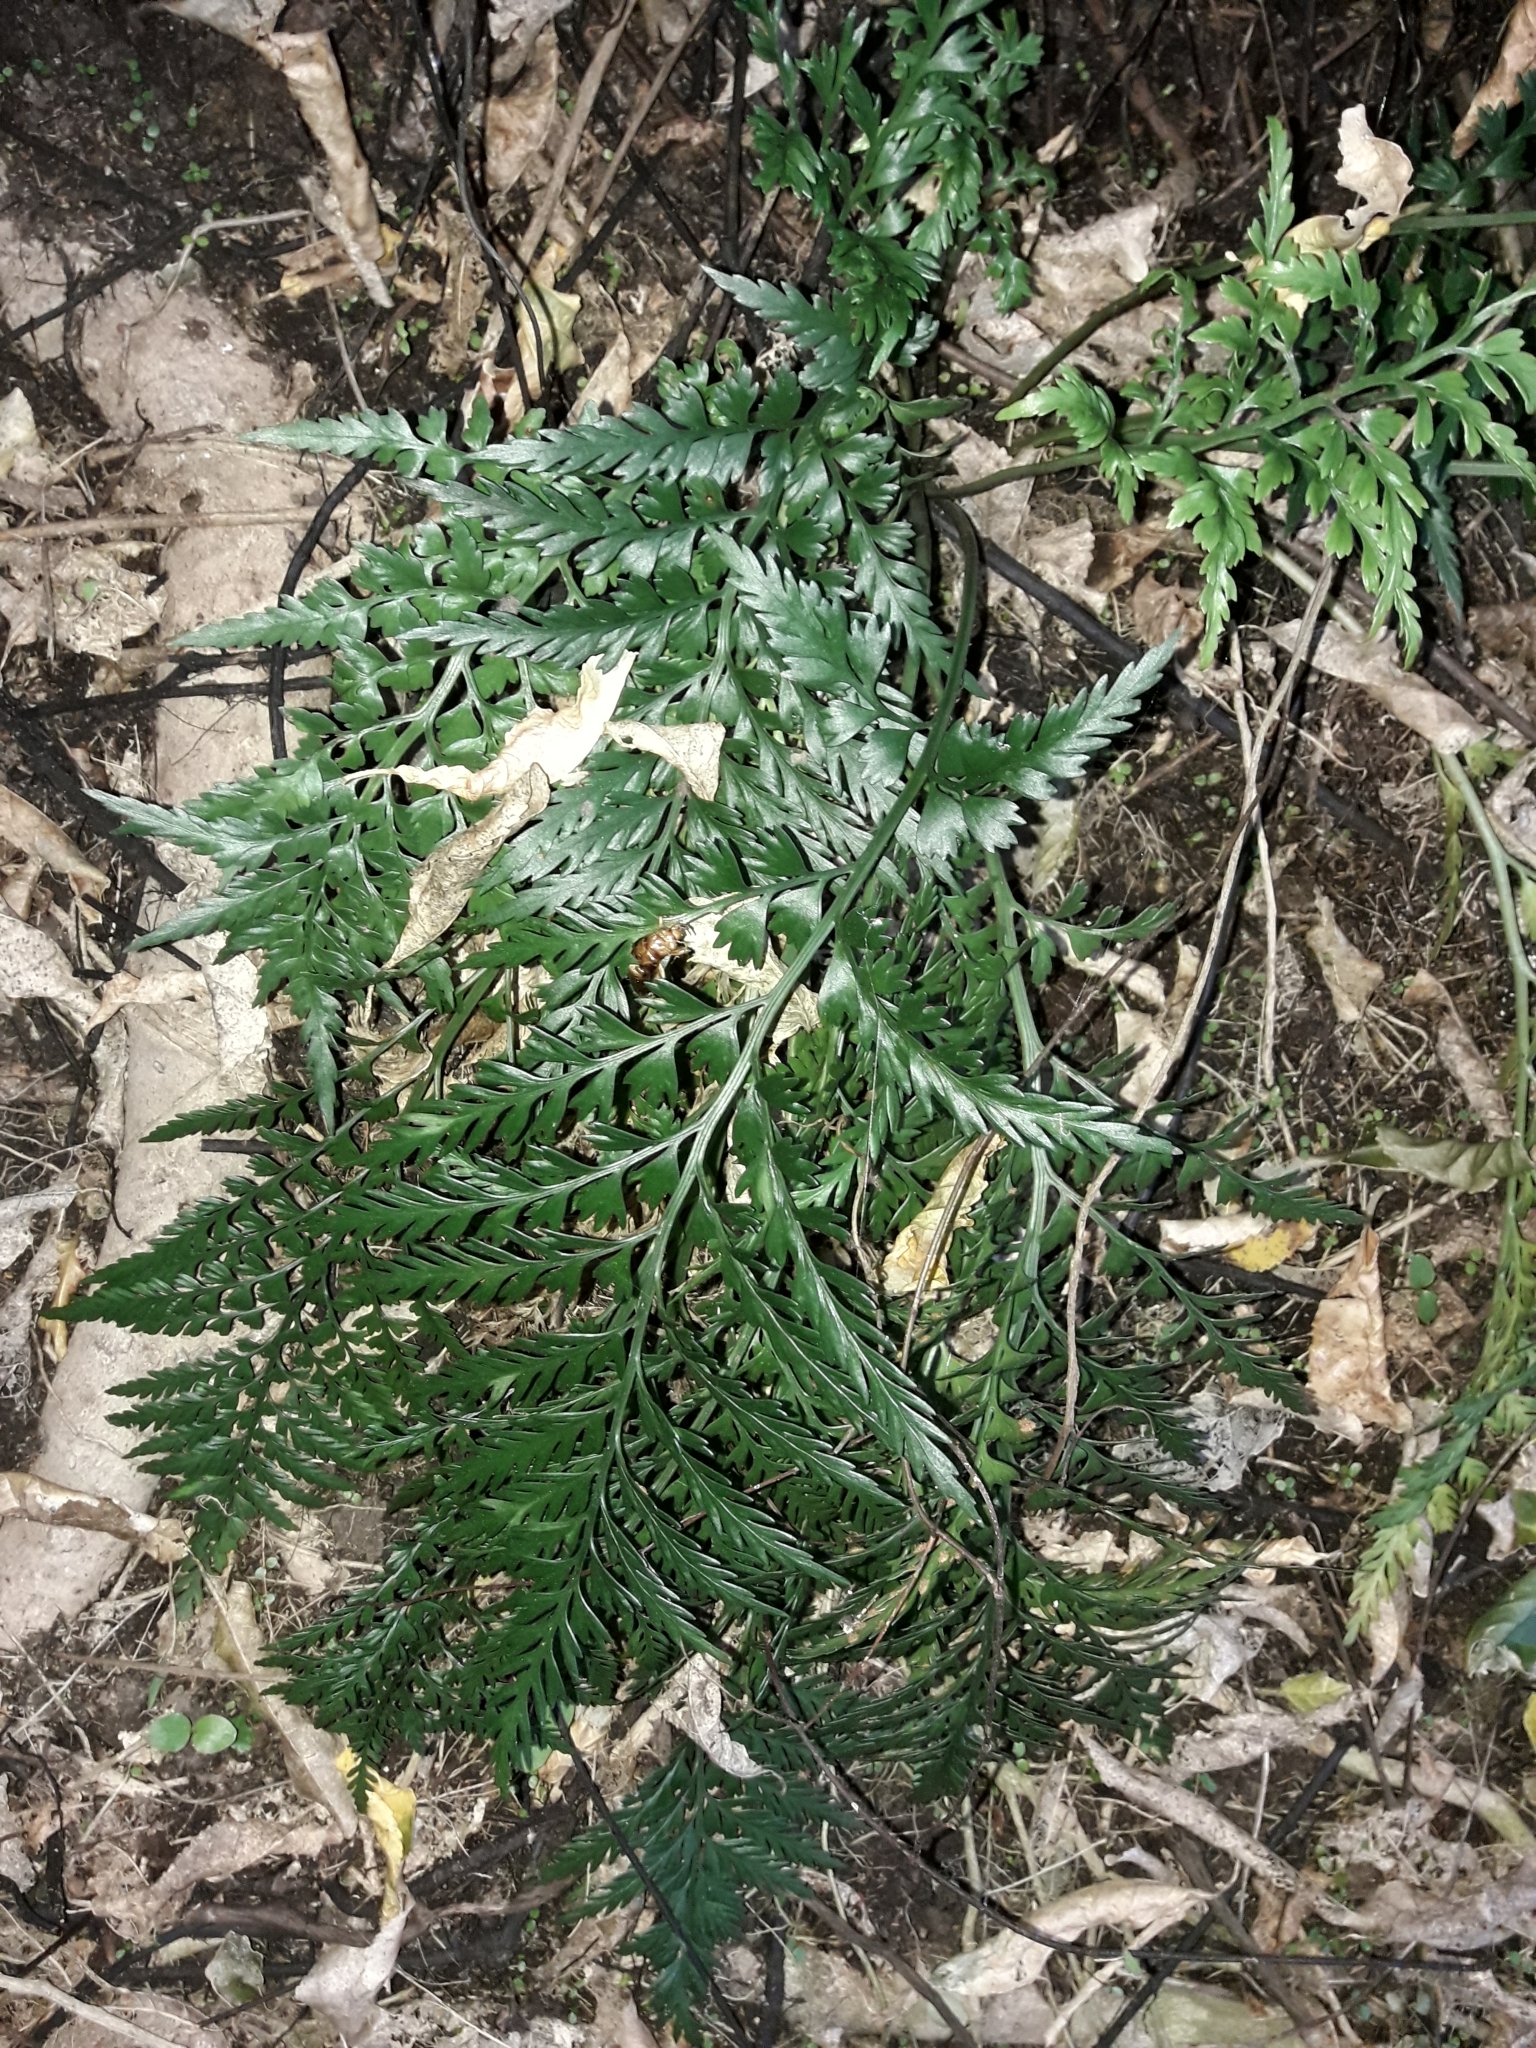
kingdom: Plantae
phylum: Tracheophyta
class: Polypodiopsida
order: Polypodiales
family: Aspleniaceae
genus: Asplenium
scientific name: Asplenium appendiculatum
